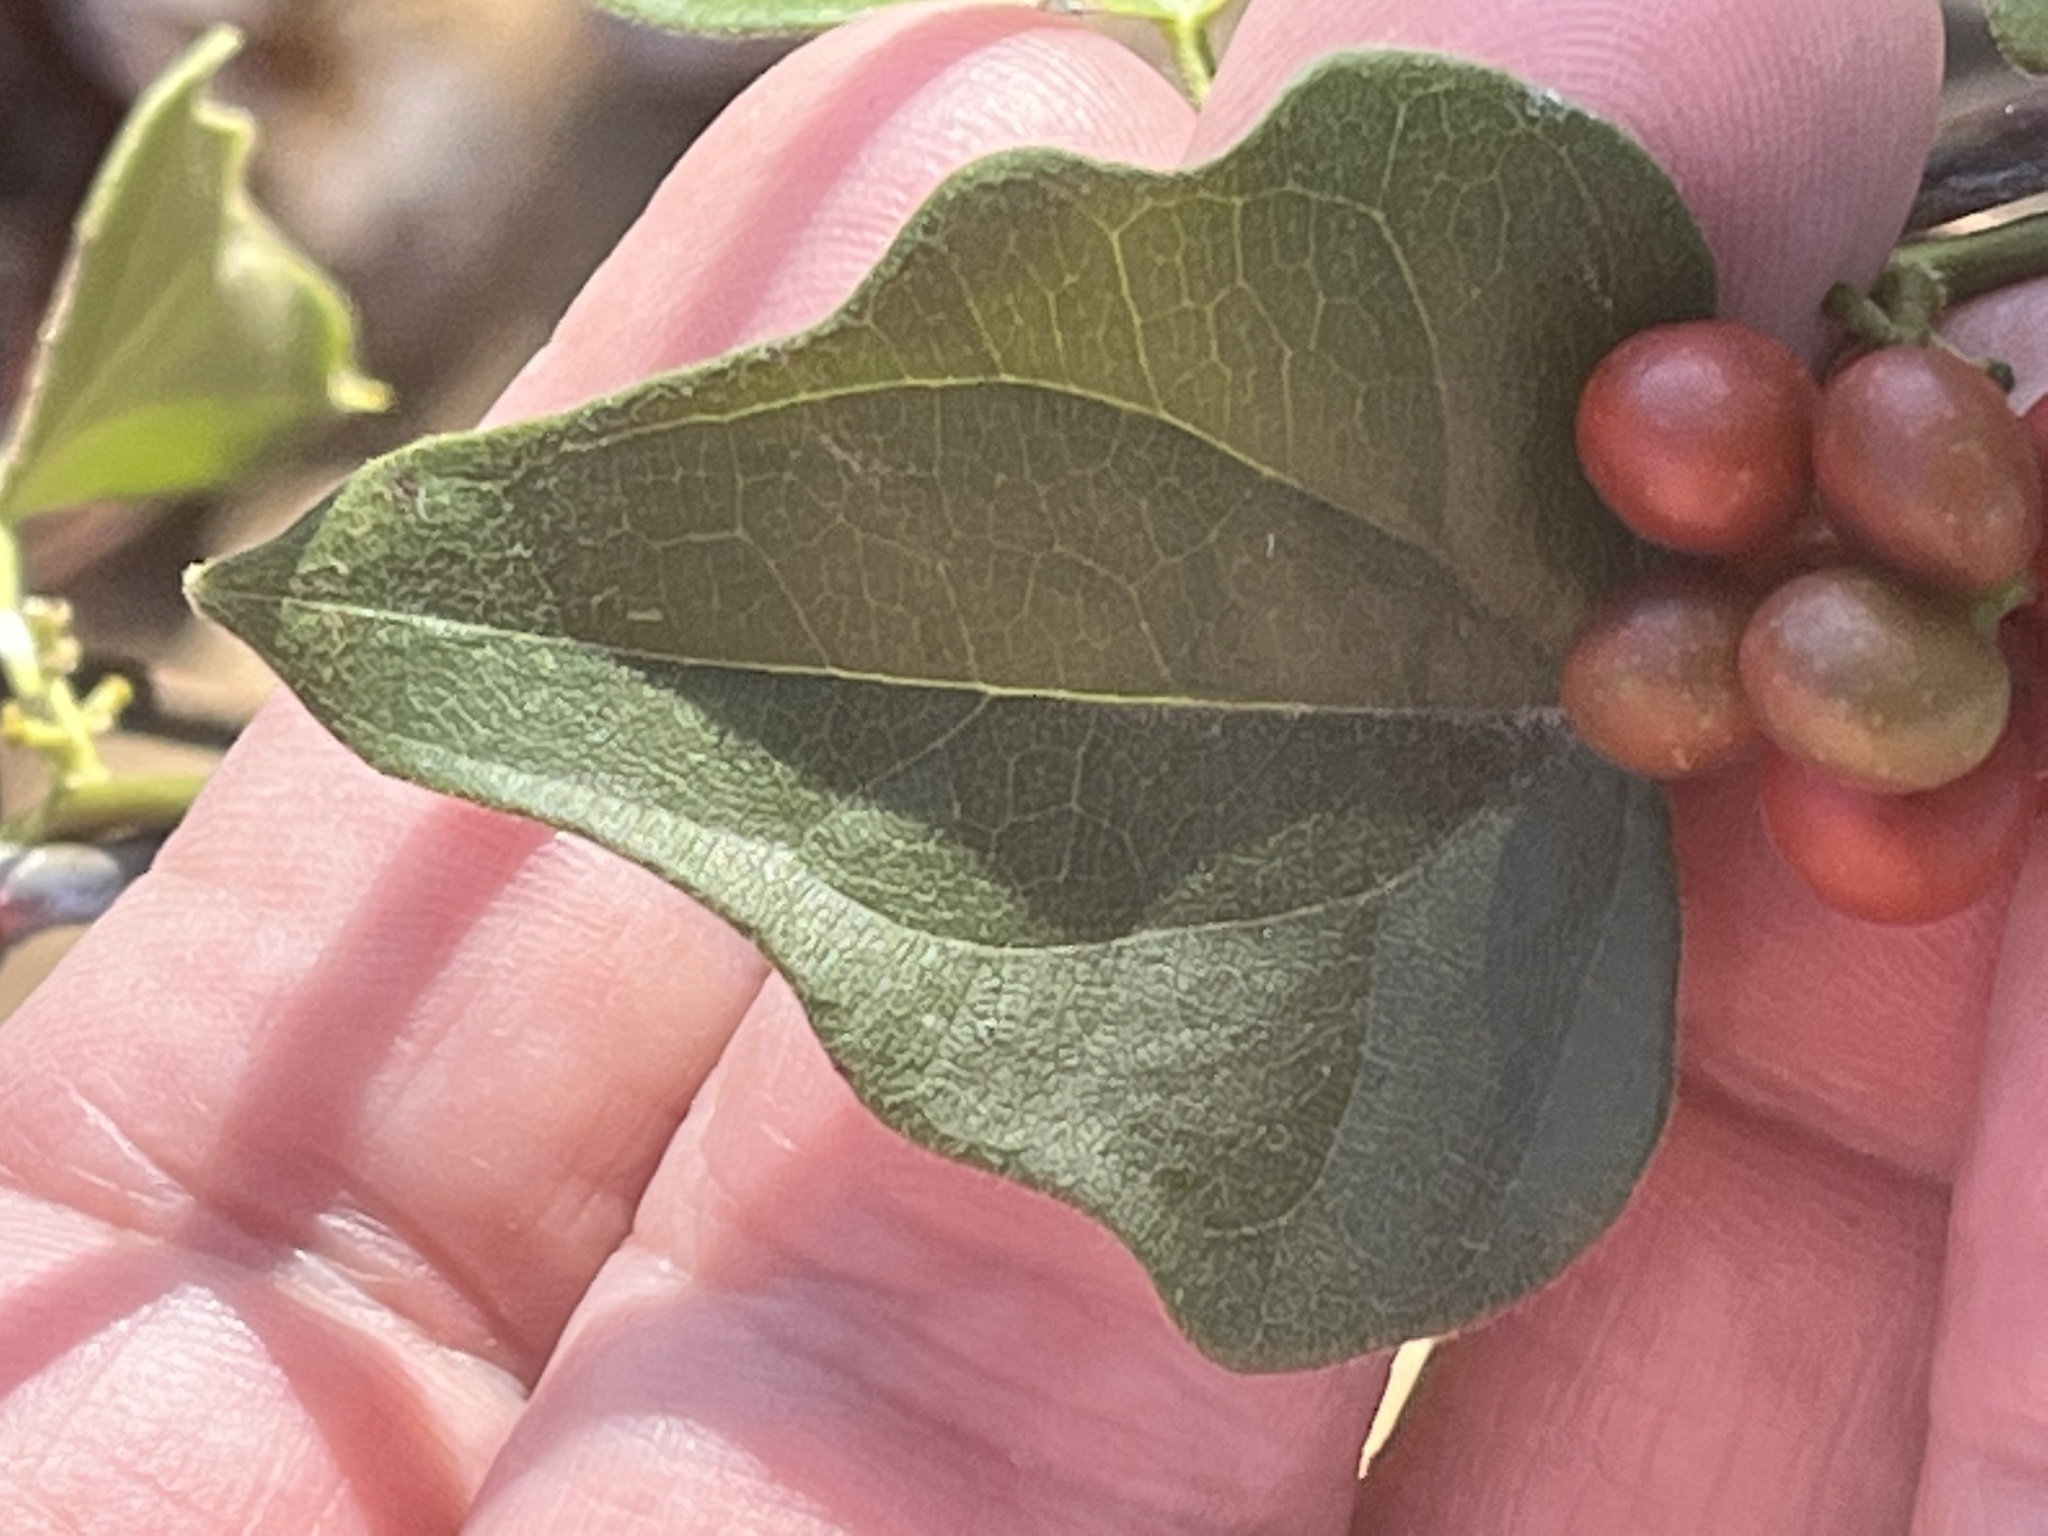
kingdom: Plantae
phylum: Tracheophyta
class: Magnoliopsida
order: Ranunculales
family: Menispermaceae
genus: Cocculus
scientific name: Cocculus carolinus
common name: Carolina moonseed
